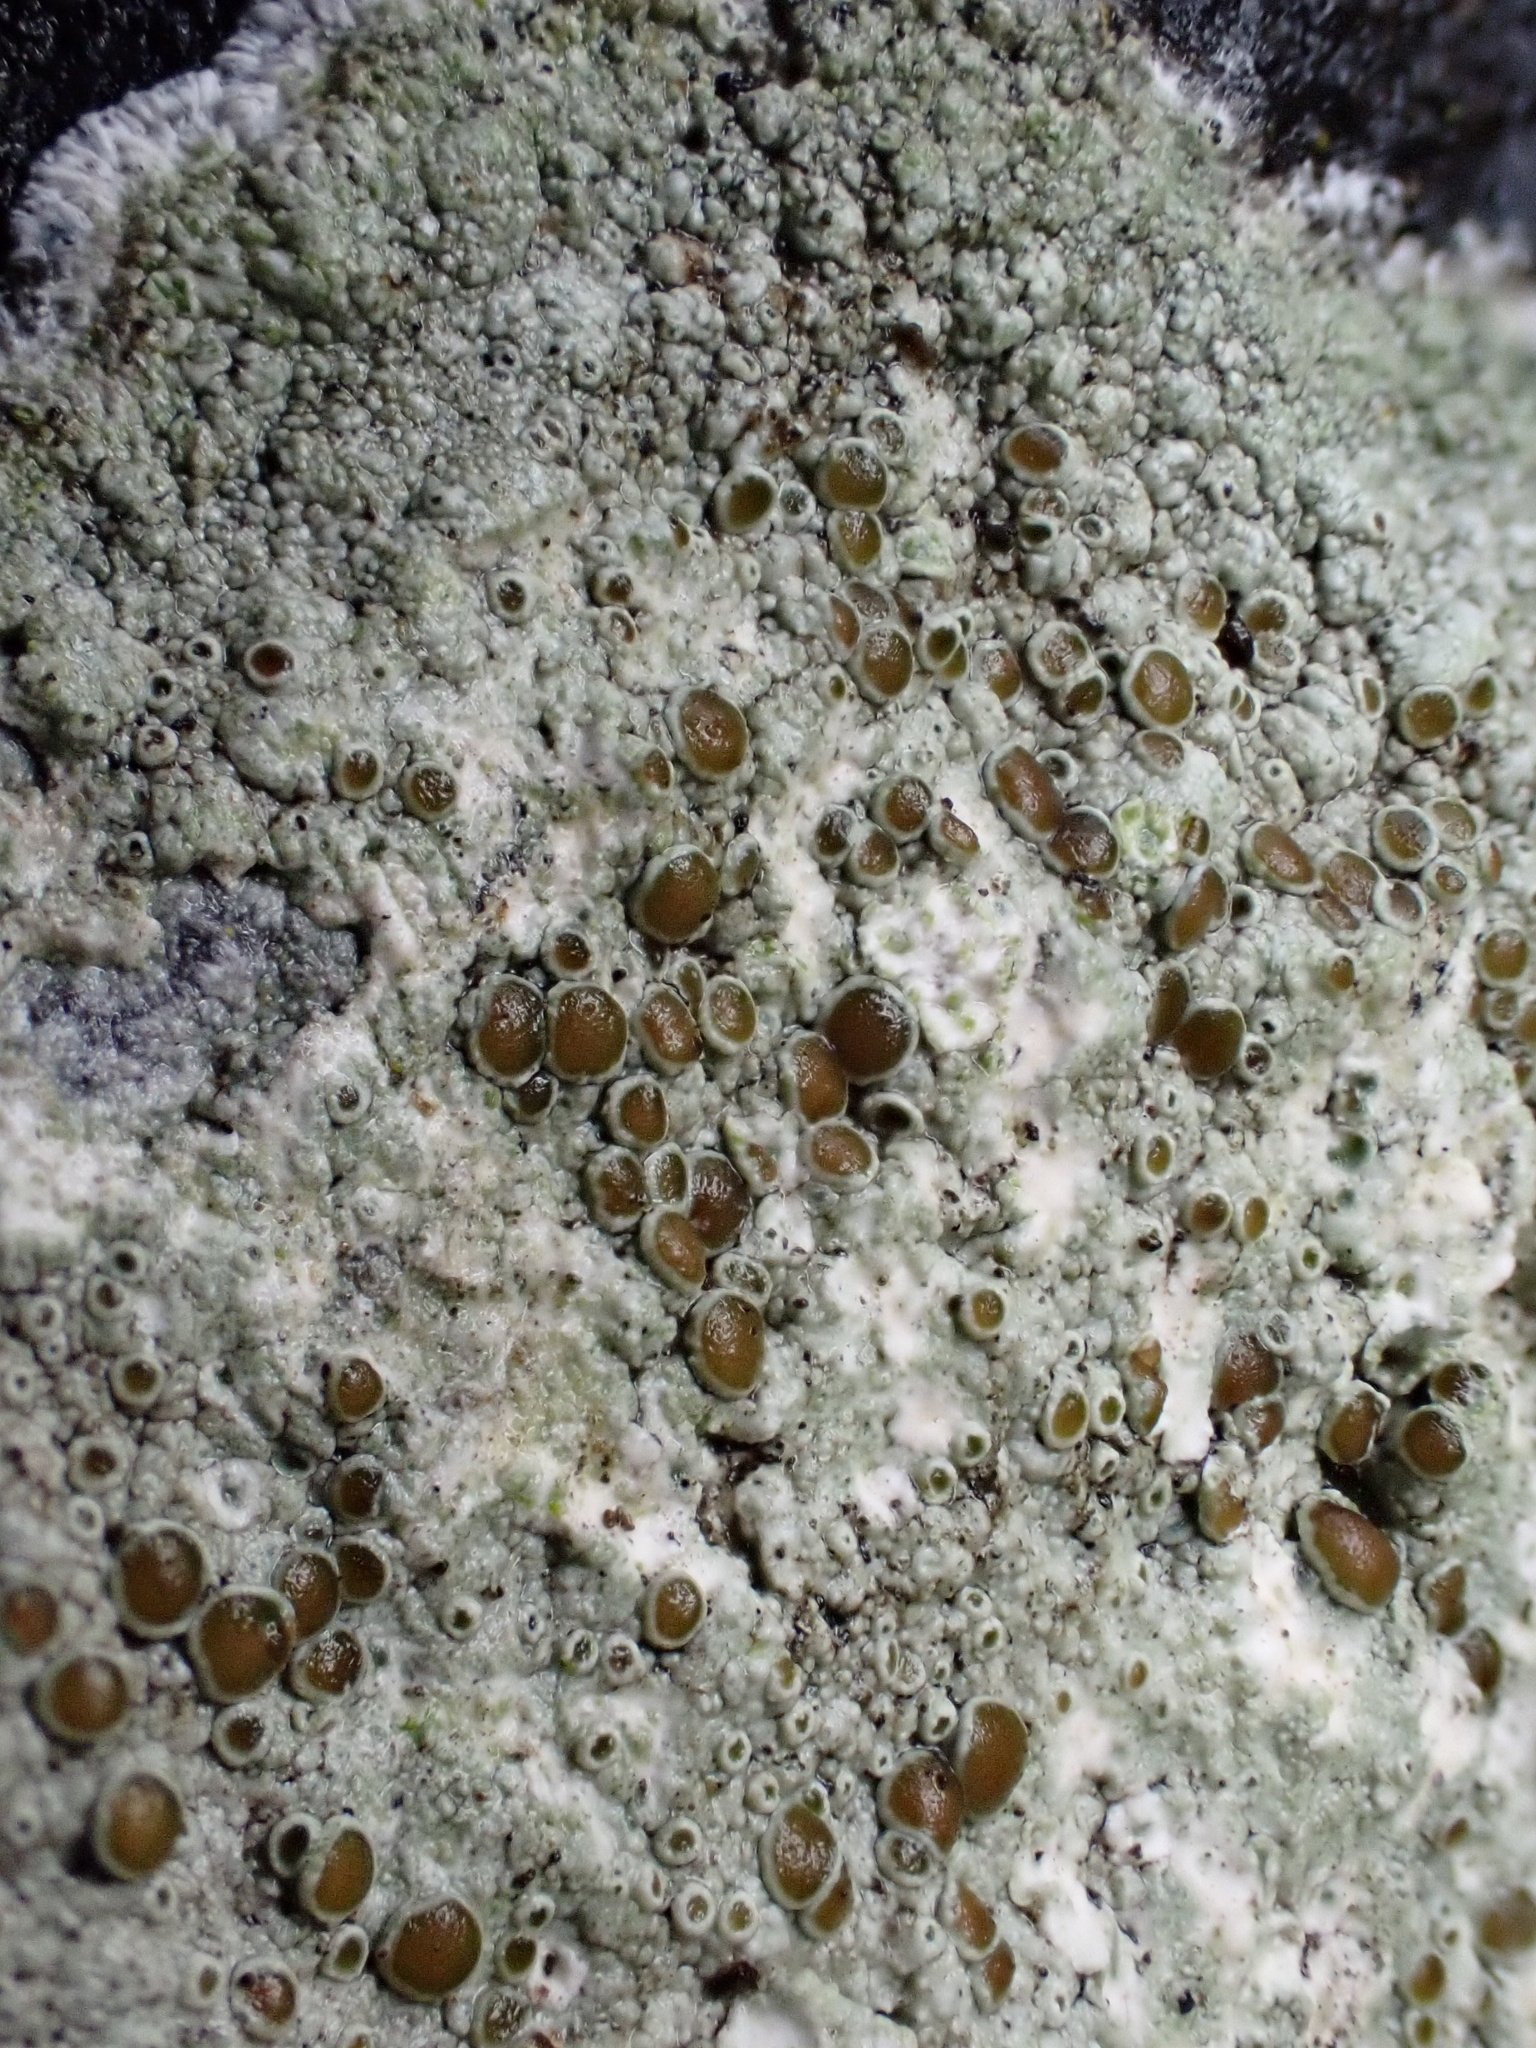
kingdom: Fungi
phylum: Ascomycota
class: Lecanoromycetes
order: Lecanorales
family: Lecanoraceae
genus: Lecanora
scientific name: Lecanora campestris
